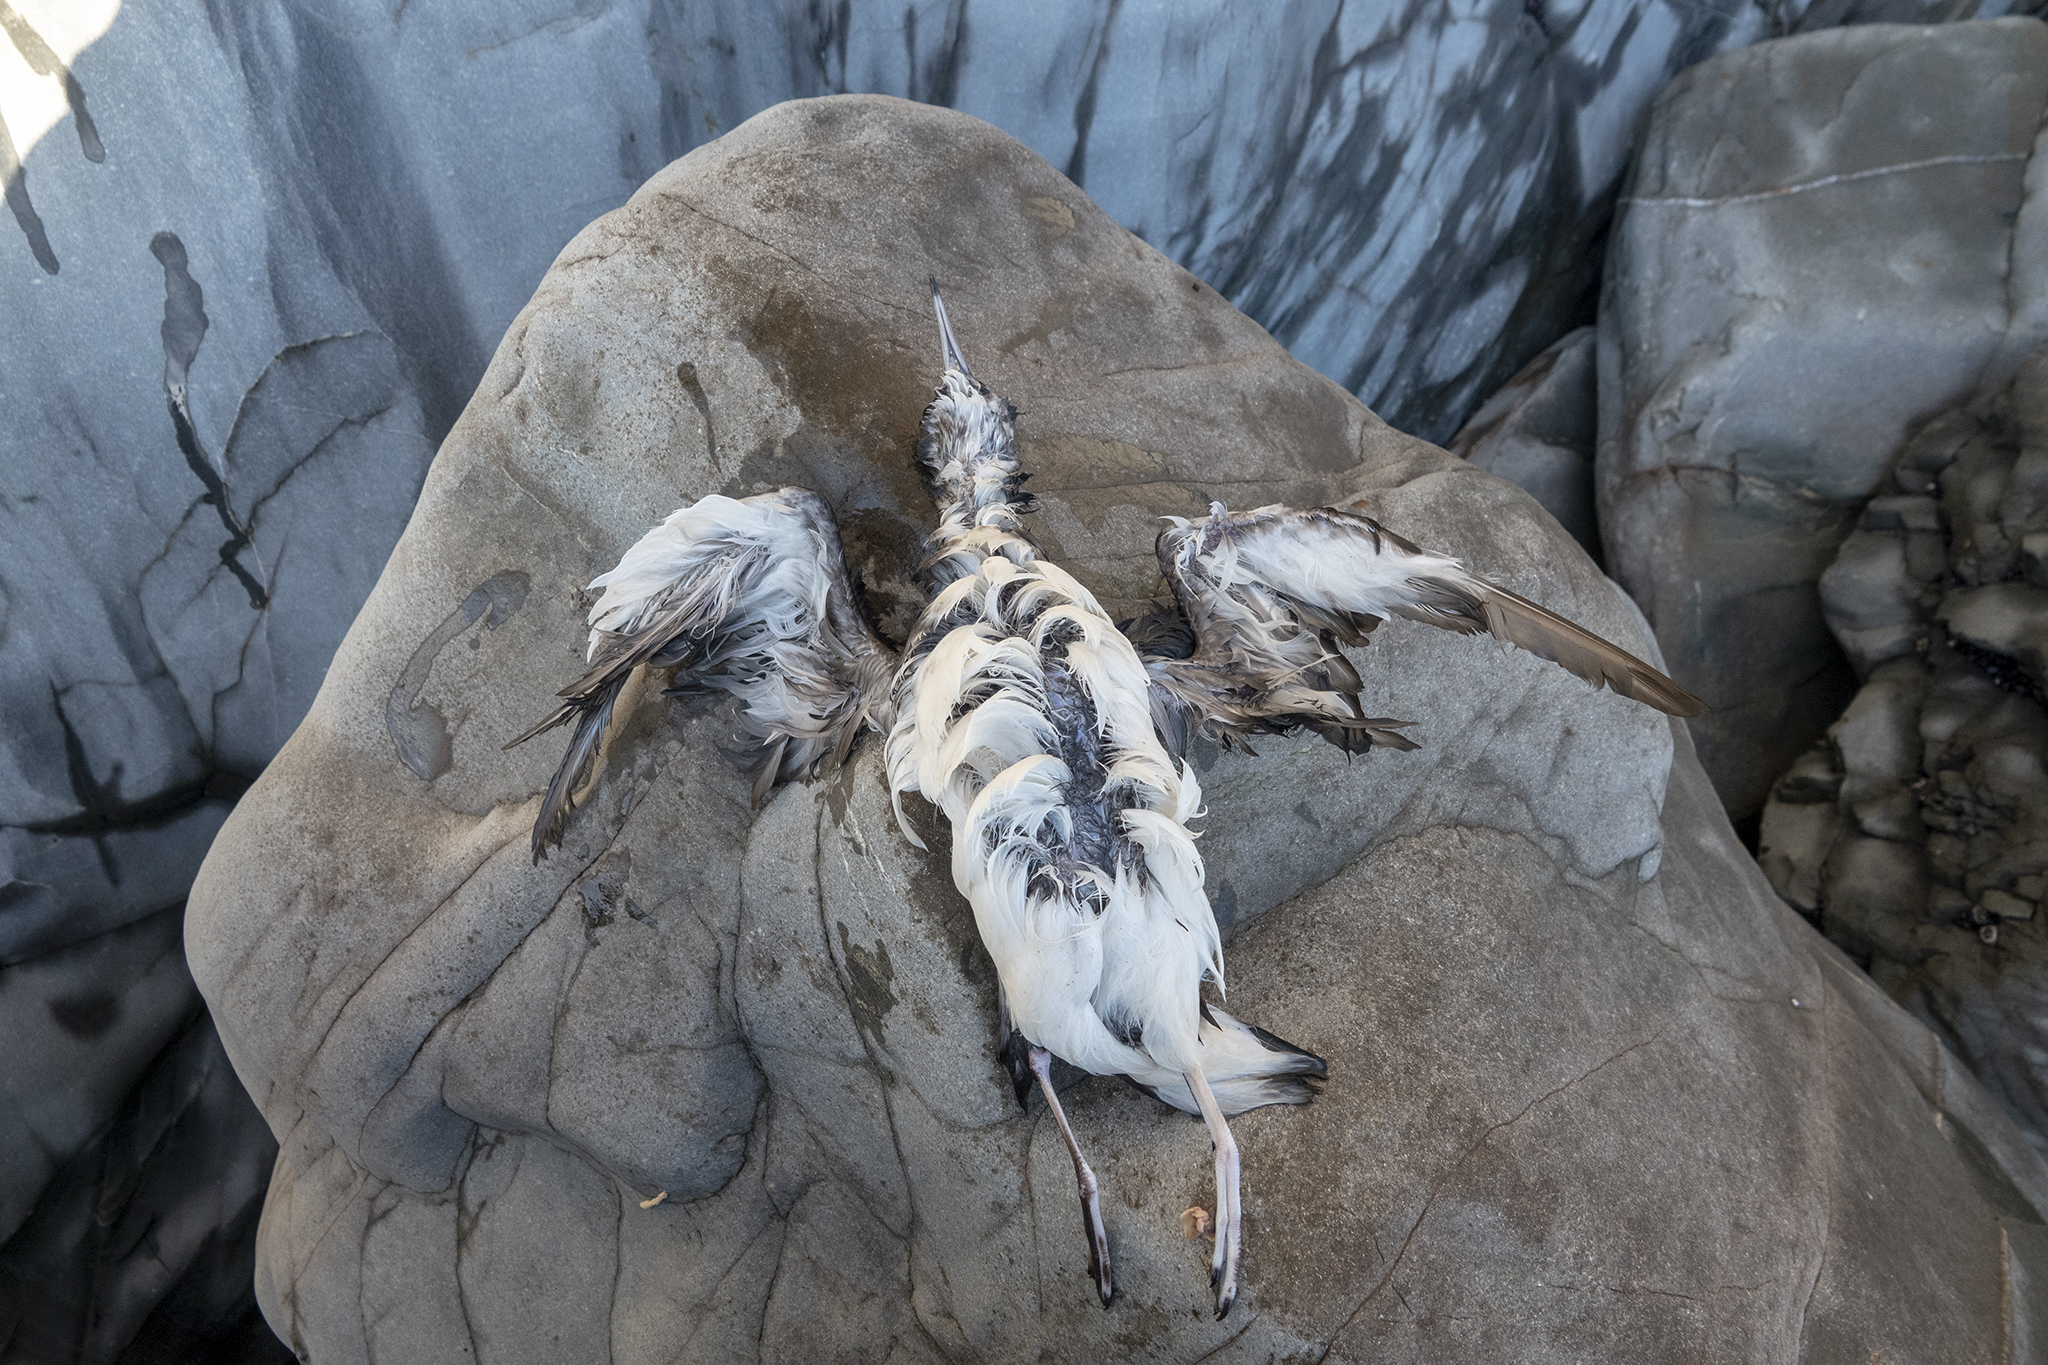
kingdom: Animalia
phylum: Chordata
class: Aves
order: Procellariiformes
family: Procellariidae
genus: Puffinus
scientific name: Puffinus gavia
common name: Fluttering shearwater
